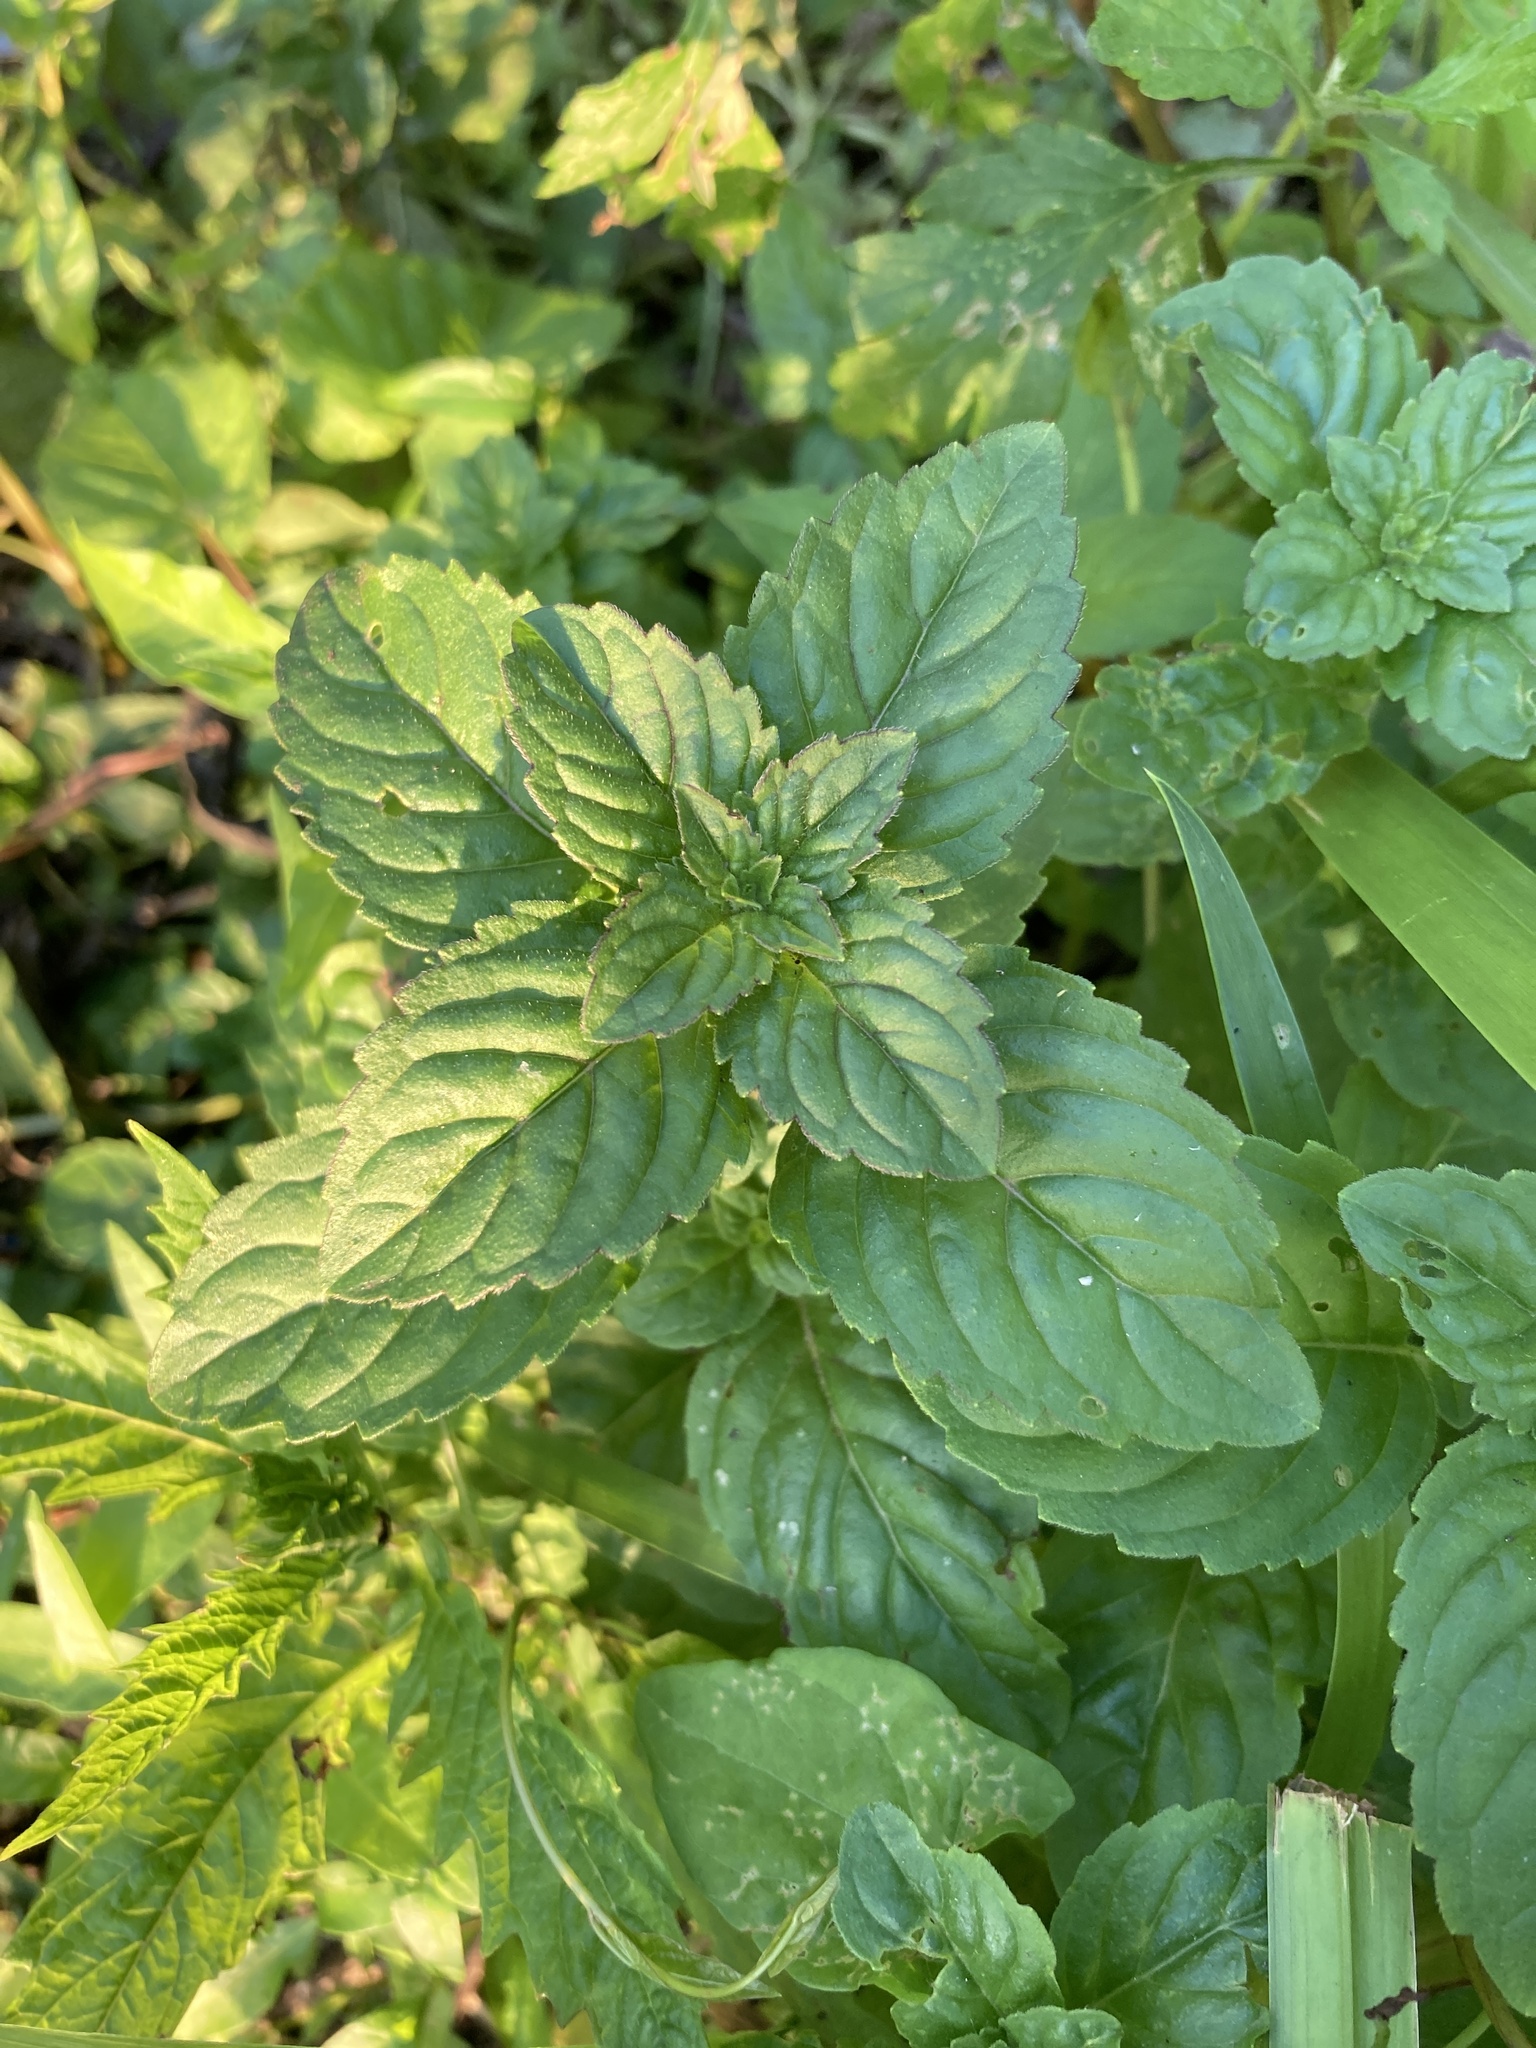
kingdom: Plantae
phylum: Tracheophyta
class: Magnoliopsida
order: Lamiales
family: Lamiaceae
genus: Mentha
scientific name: Mentha arvensis
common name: Corn mint
